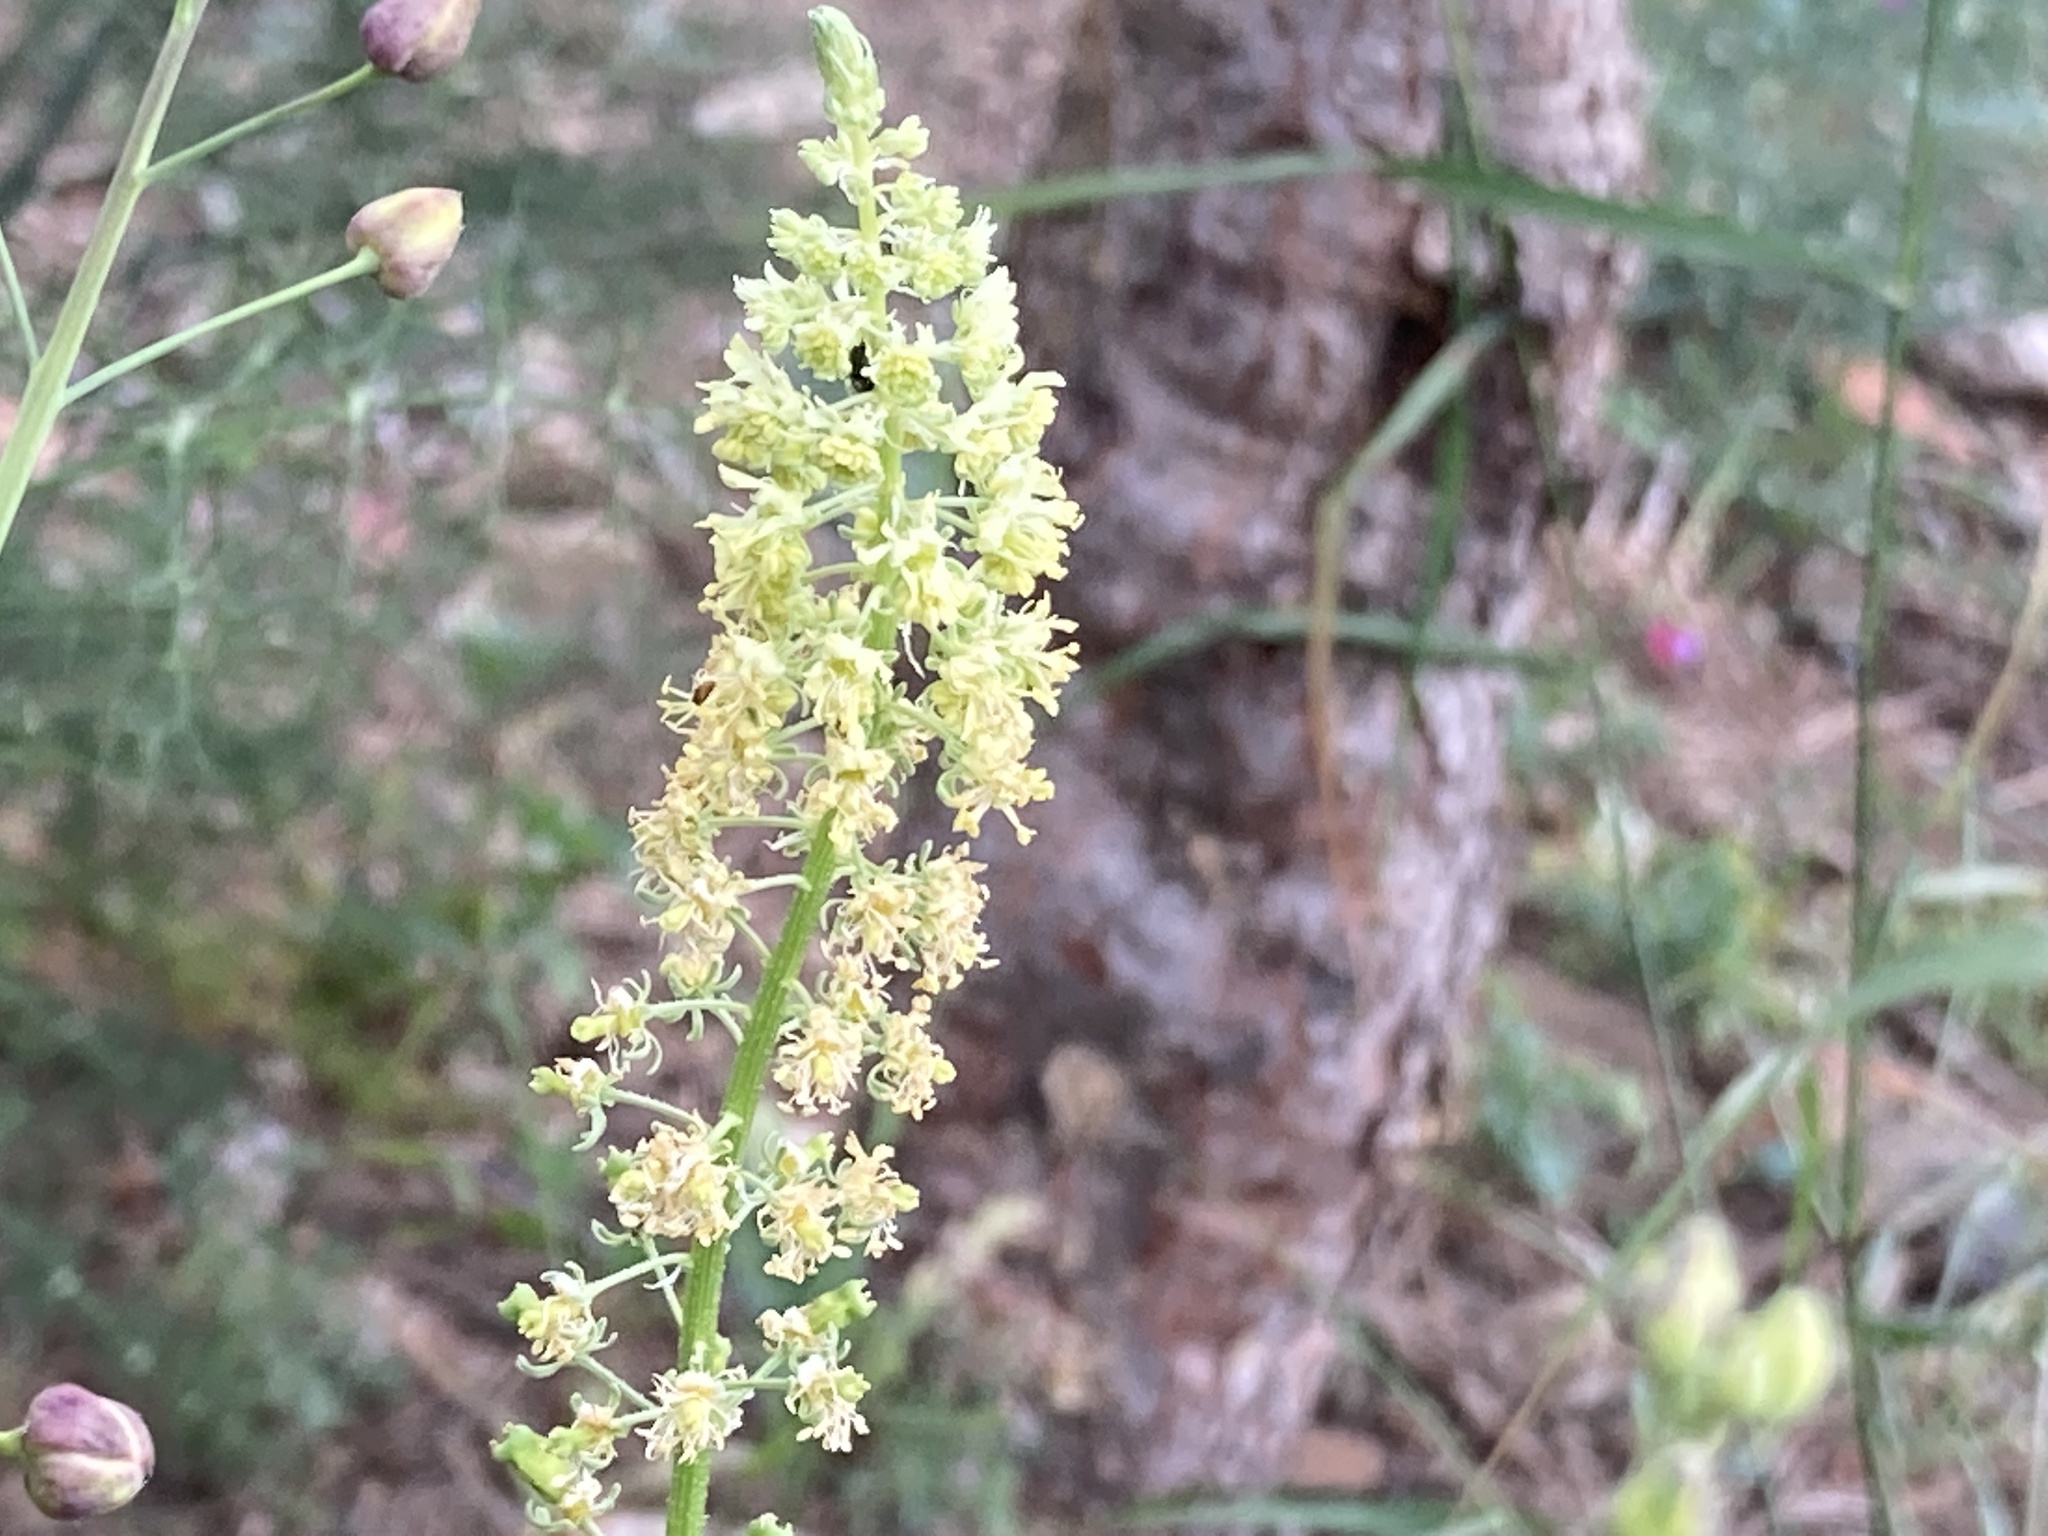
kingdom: Plantae
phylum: Tracheophyta
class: Magnoliopsida
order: Brassicales
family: Resedaceae
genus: Reseda
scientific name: Reseda lutea
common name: Wild mignonette
